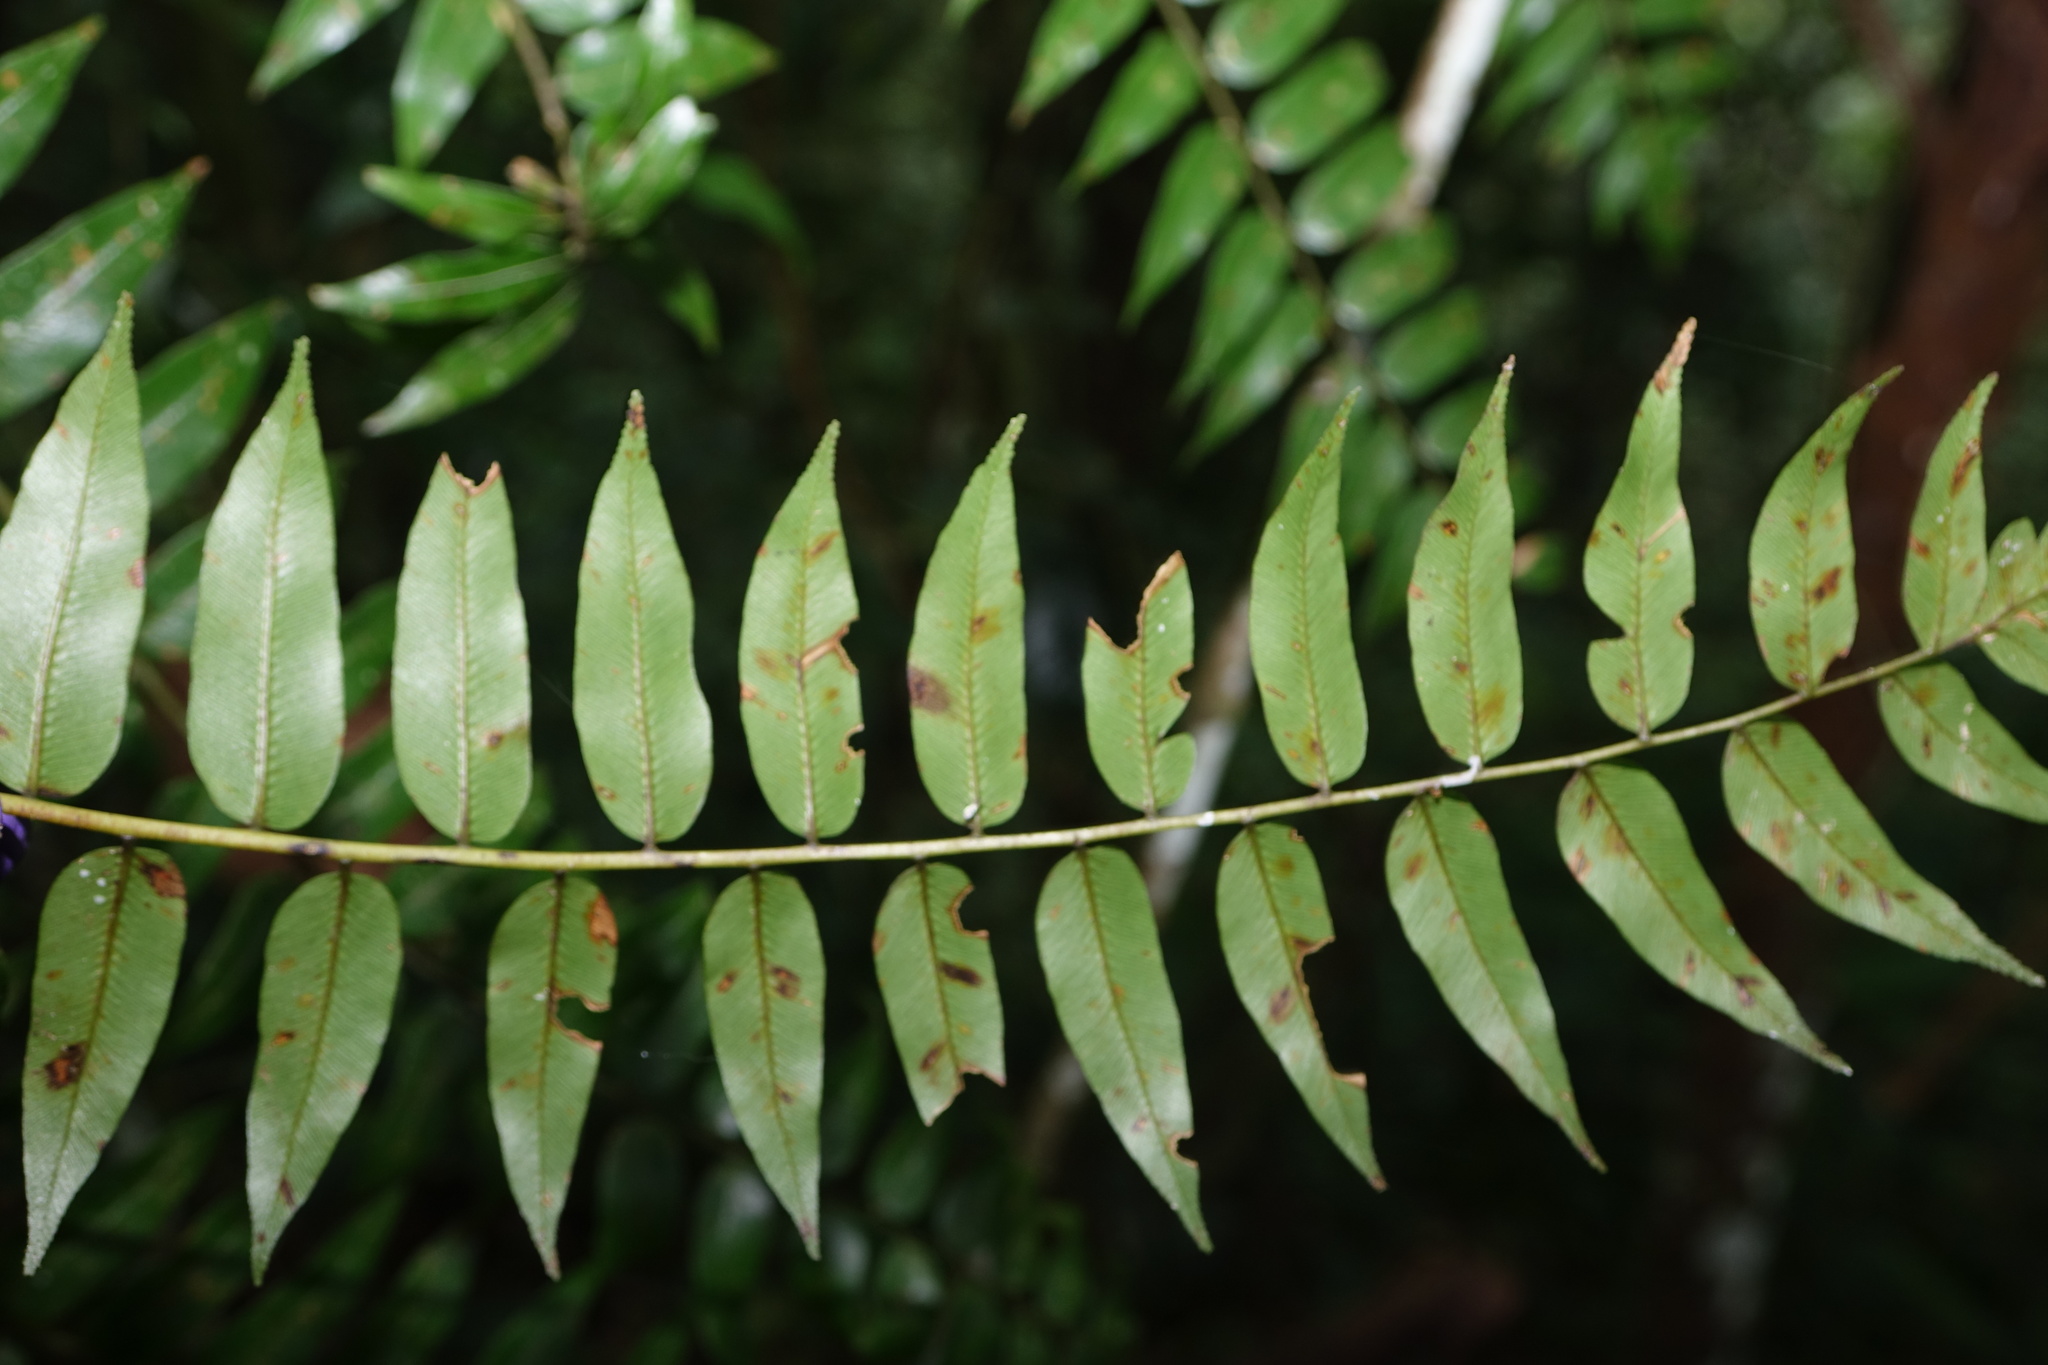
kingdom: Plantae
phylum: Tracheophyta
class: Polypodiopsida
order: Cyatheales
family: Cyatheaceae
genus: Alsophila
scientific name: Alsophila borbonica
